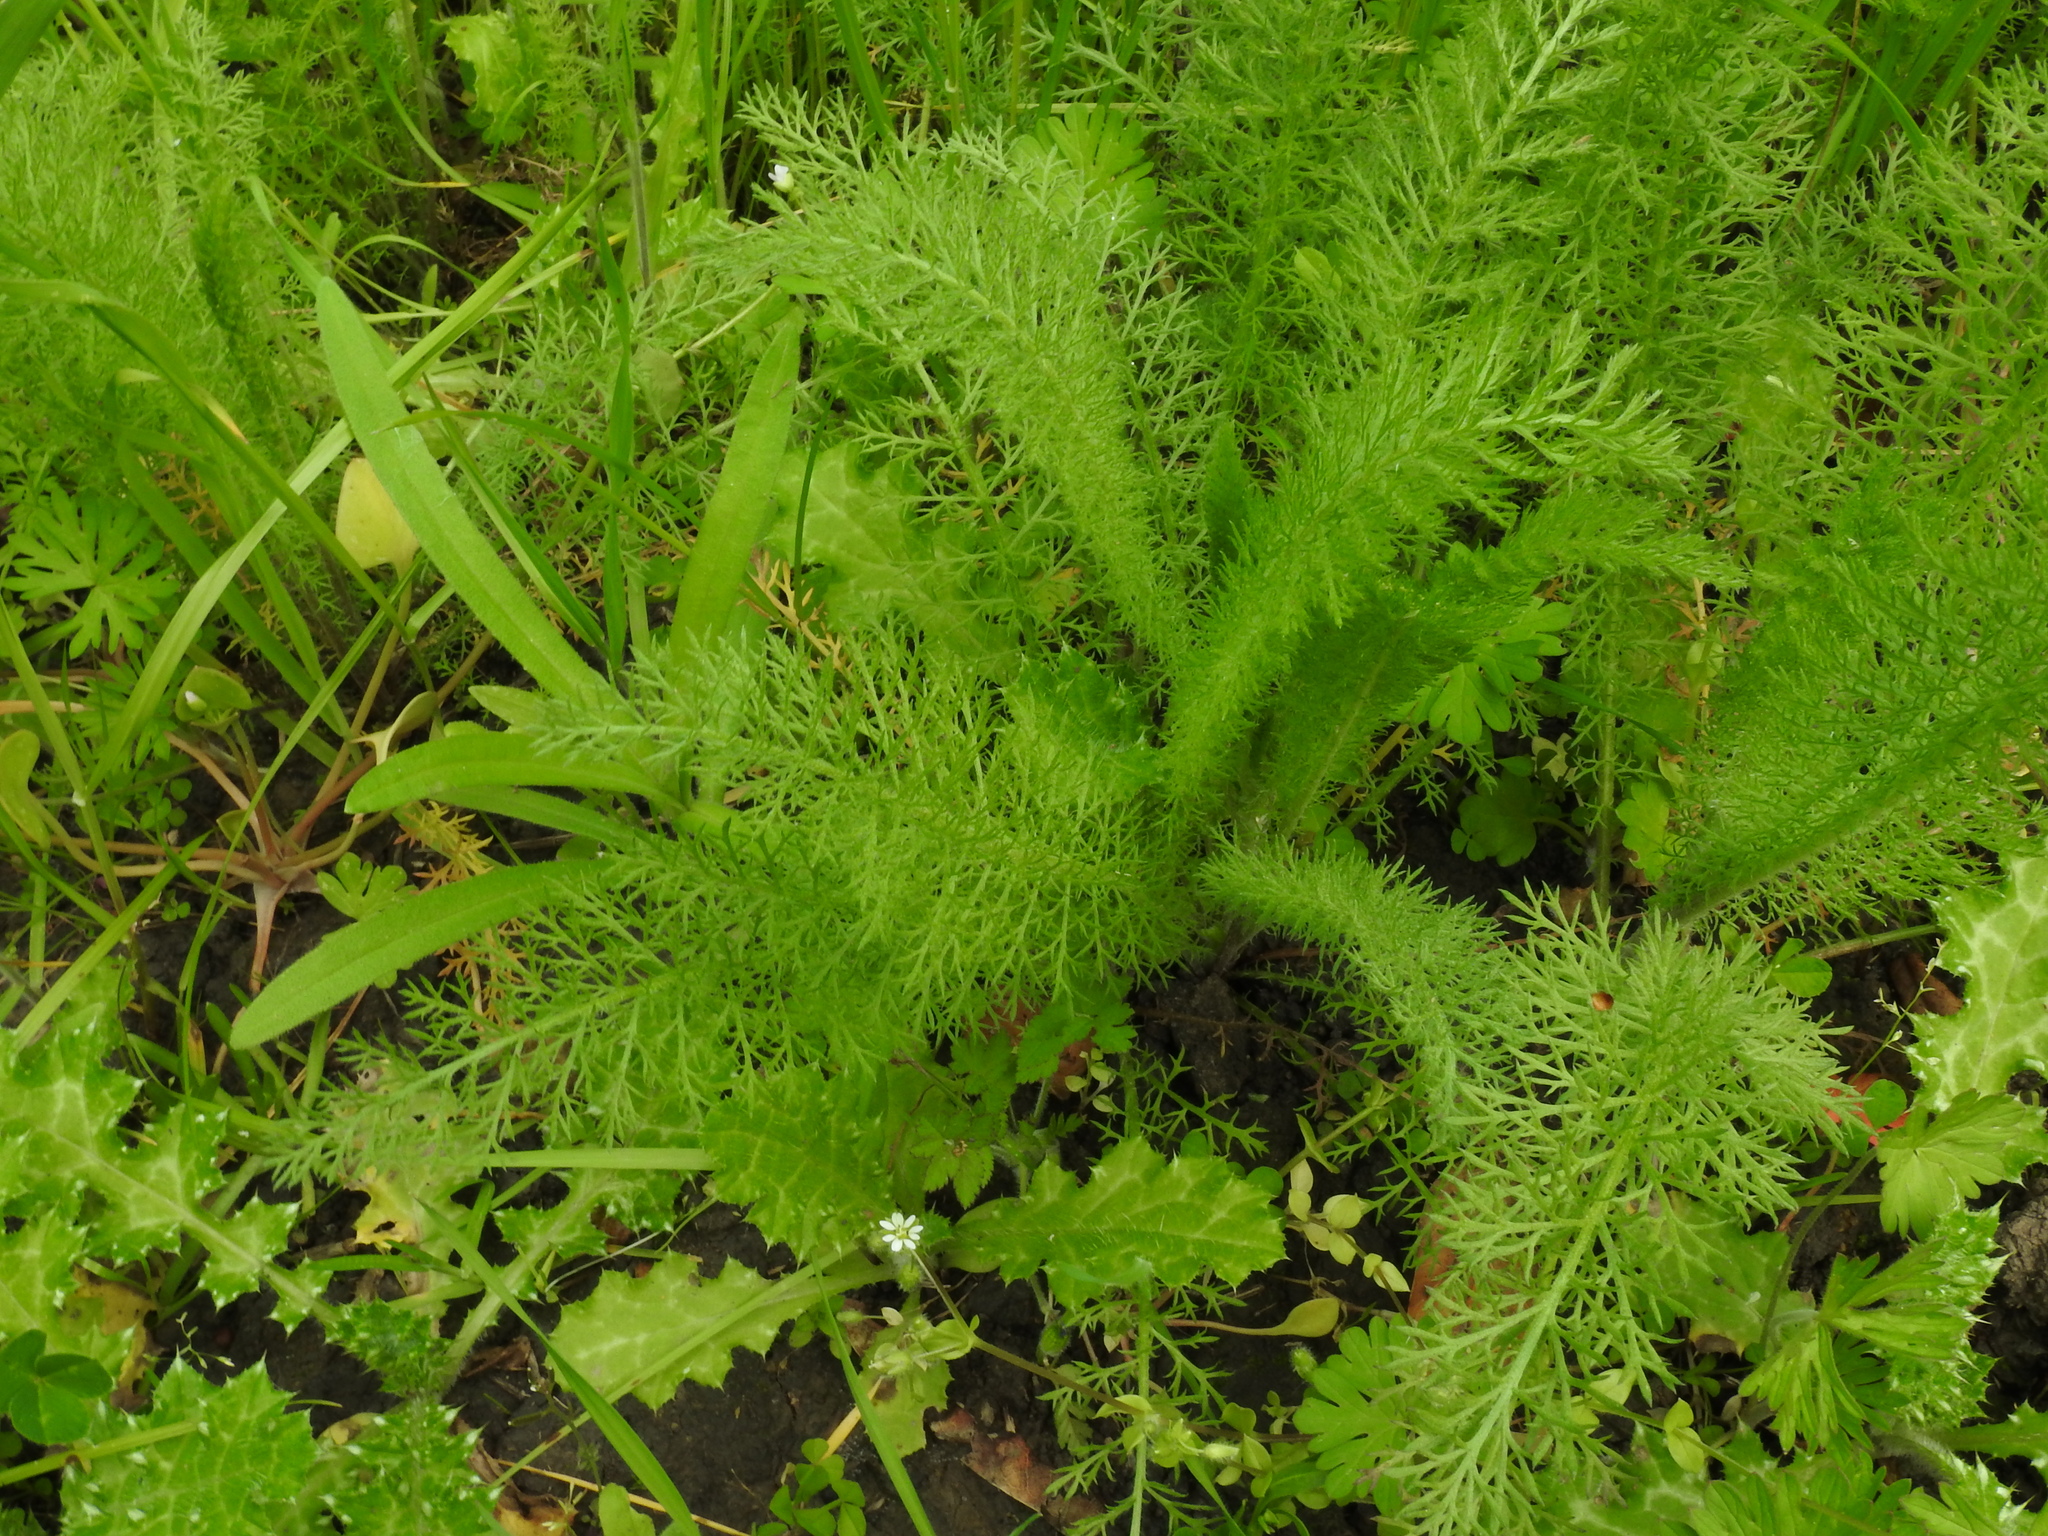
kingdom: Plantae
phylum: Tracheophyta
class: Magnoliopsida
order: Asterales
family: Asteraceae
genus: Achillea
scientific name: Achillea millefolium
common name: Yarrow
